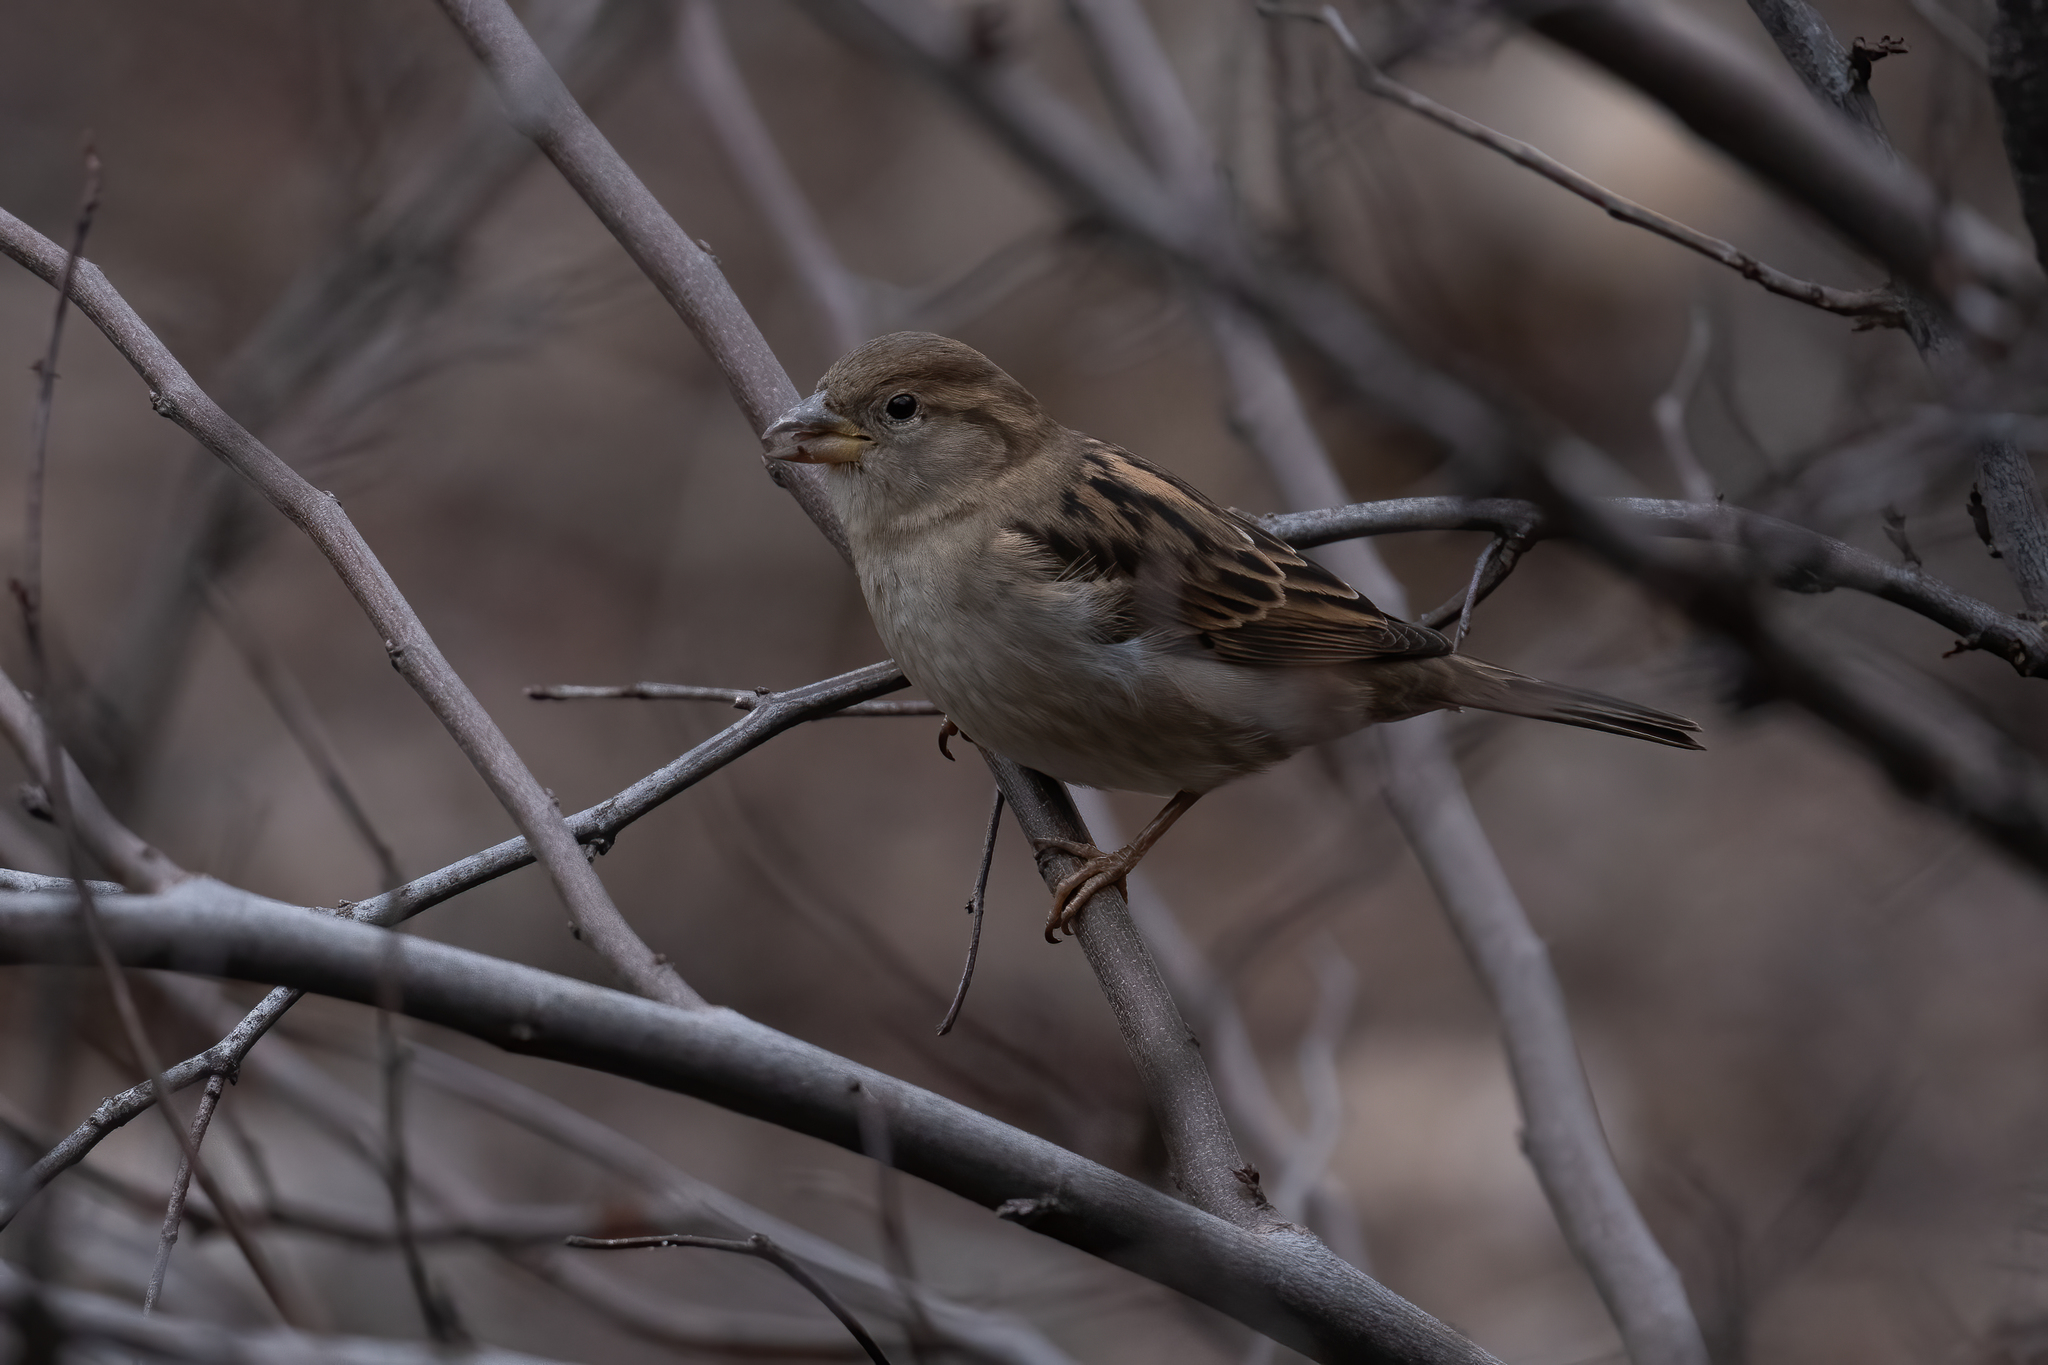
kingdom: Animalia
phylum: Chordata
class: Aves
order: Passeriformes
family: Passeridae
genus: Passer
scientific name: Passer domesticus
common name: House sparrow
